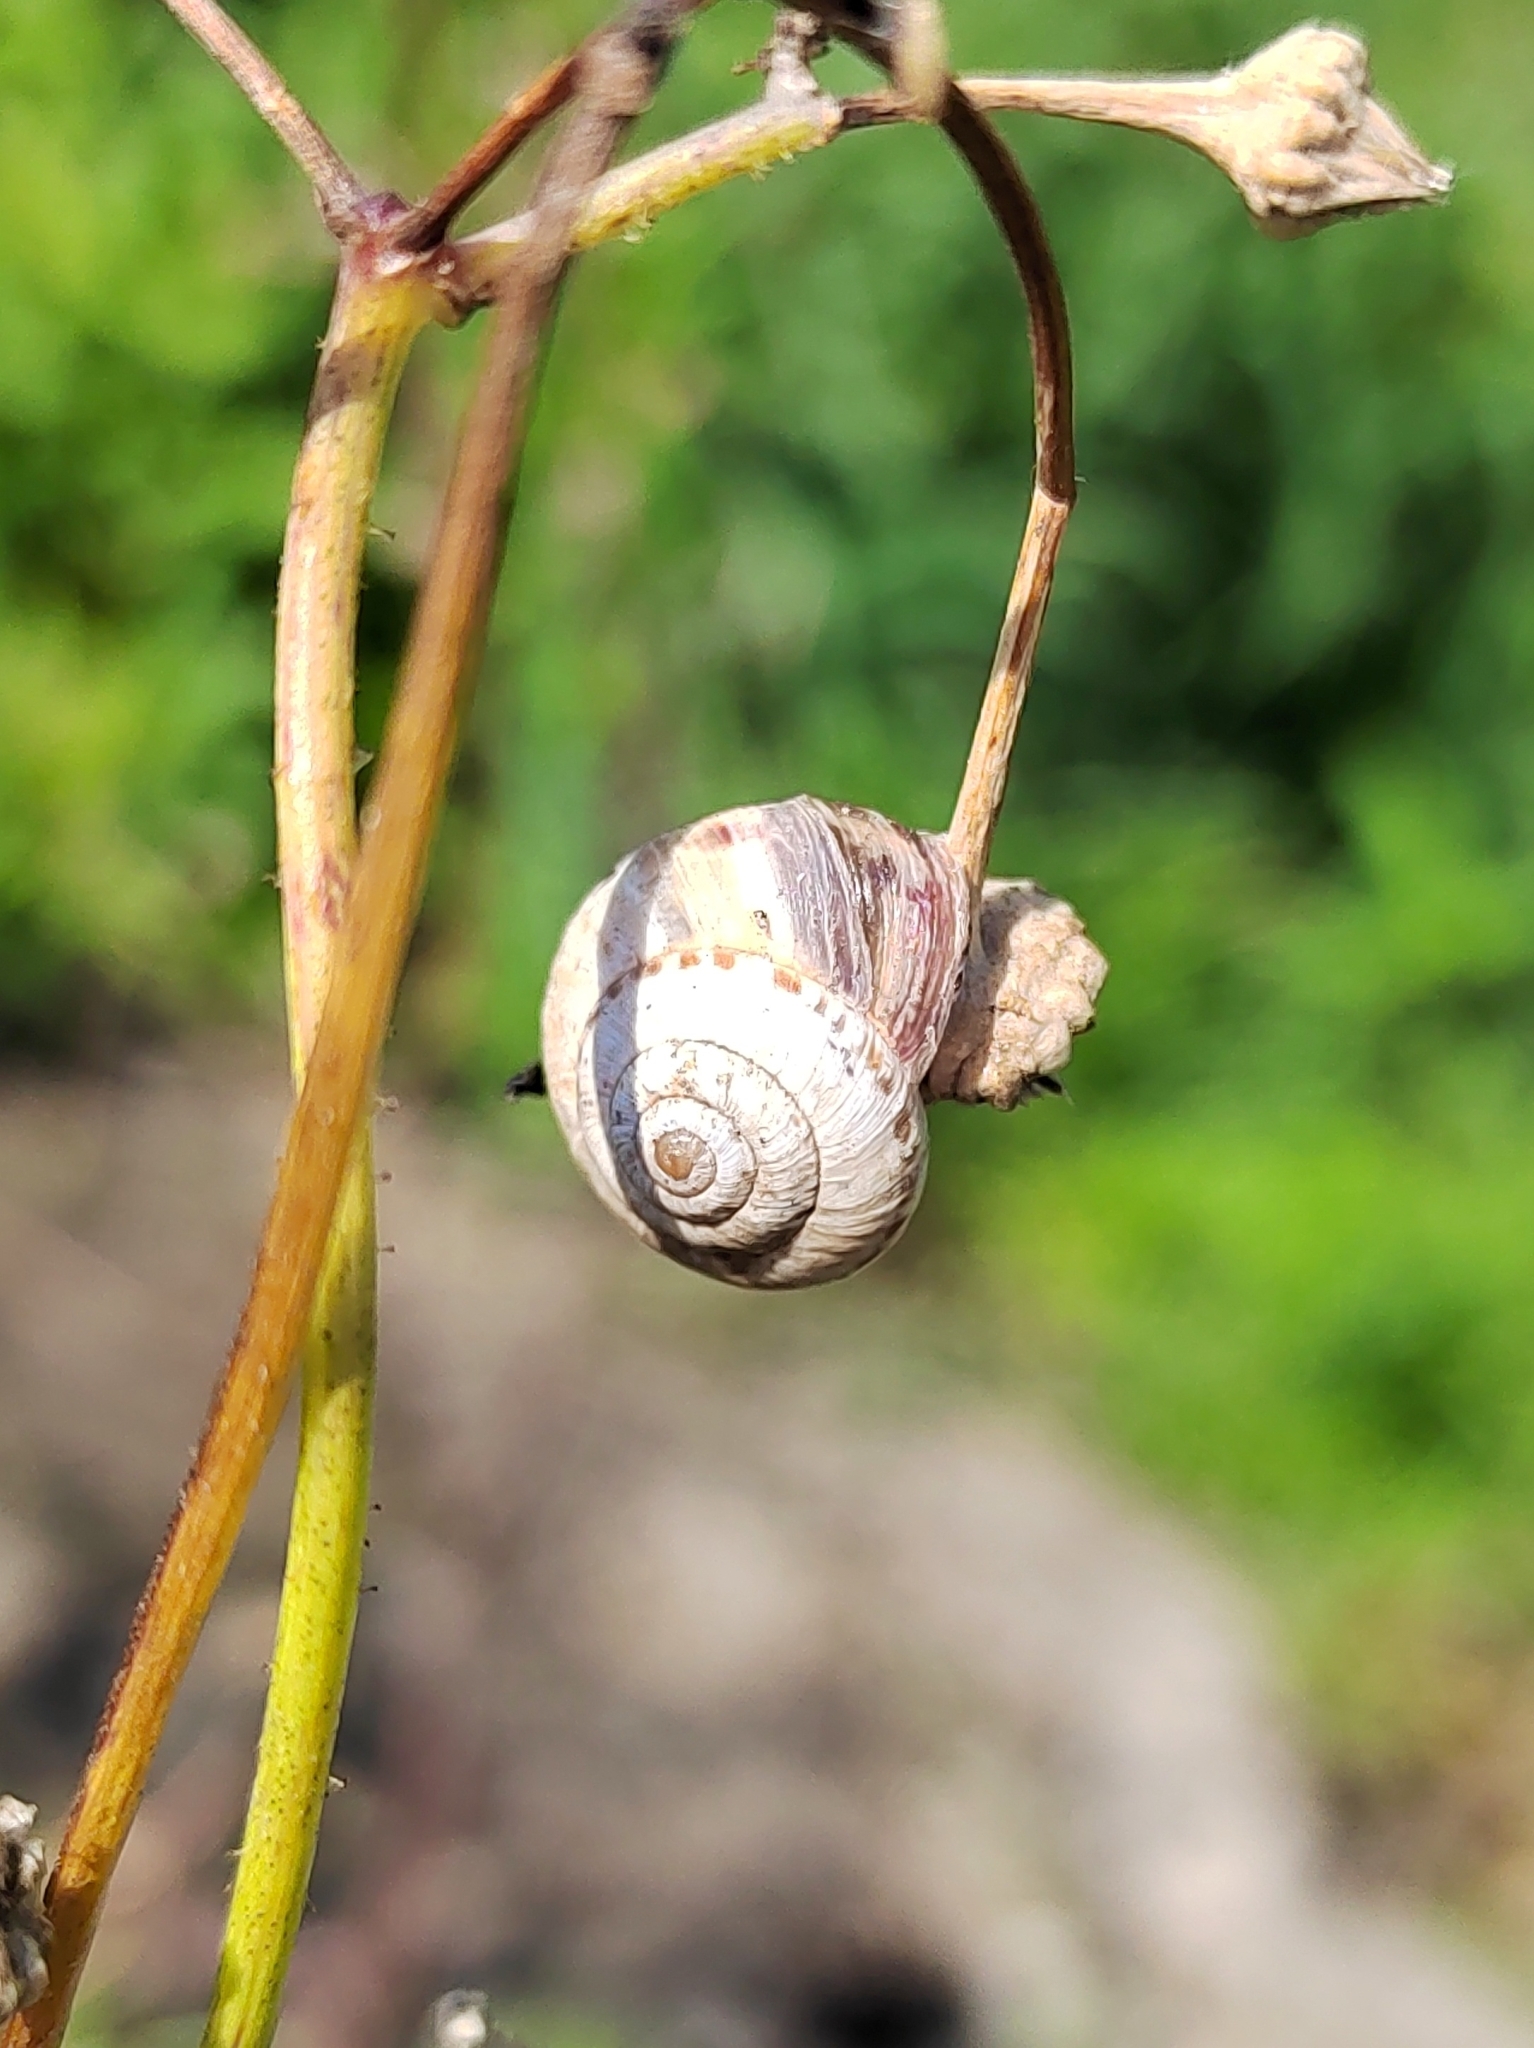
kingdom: Animalia
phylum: Mollusca
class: Gastropoda
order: Stylommatophora
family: Geomitridae
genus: Cernuella
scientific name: Cernuella virgata
